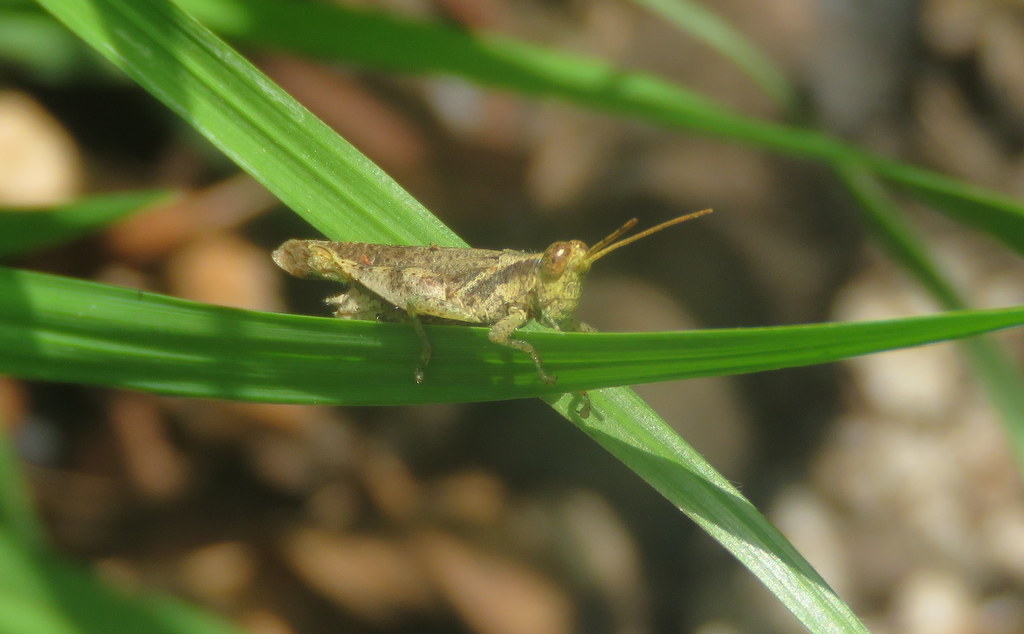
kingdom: Animalia
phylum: Arthropoda
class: Insecta
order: Orthoptera
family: Acrididae
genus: Omalotettix
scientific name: Omalotettix obliquus
